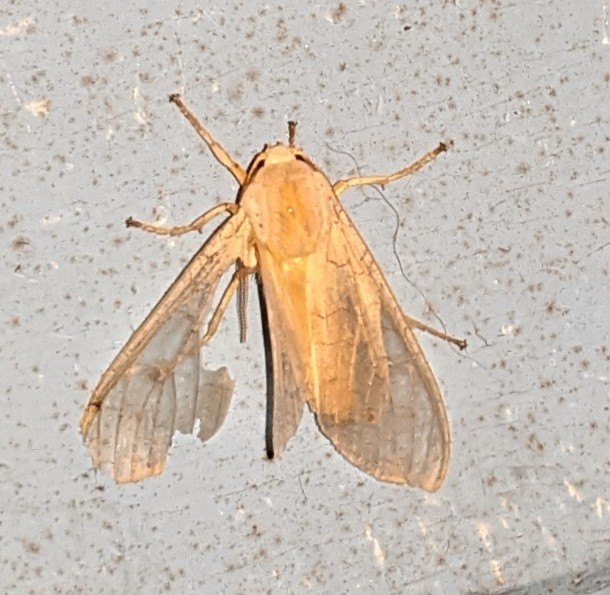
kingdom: Animalia
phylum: Arthropoda
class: Insecta
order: Lepidoptera
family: Erebidae
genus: Halysidota
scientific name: Halysidota tessellaris
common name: Banded tussock moth
